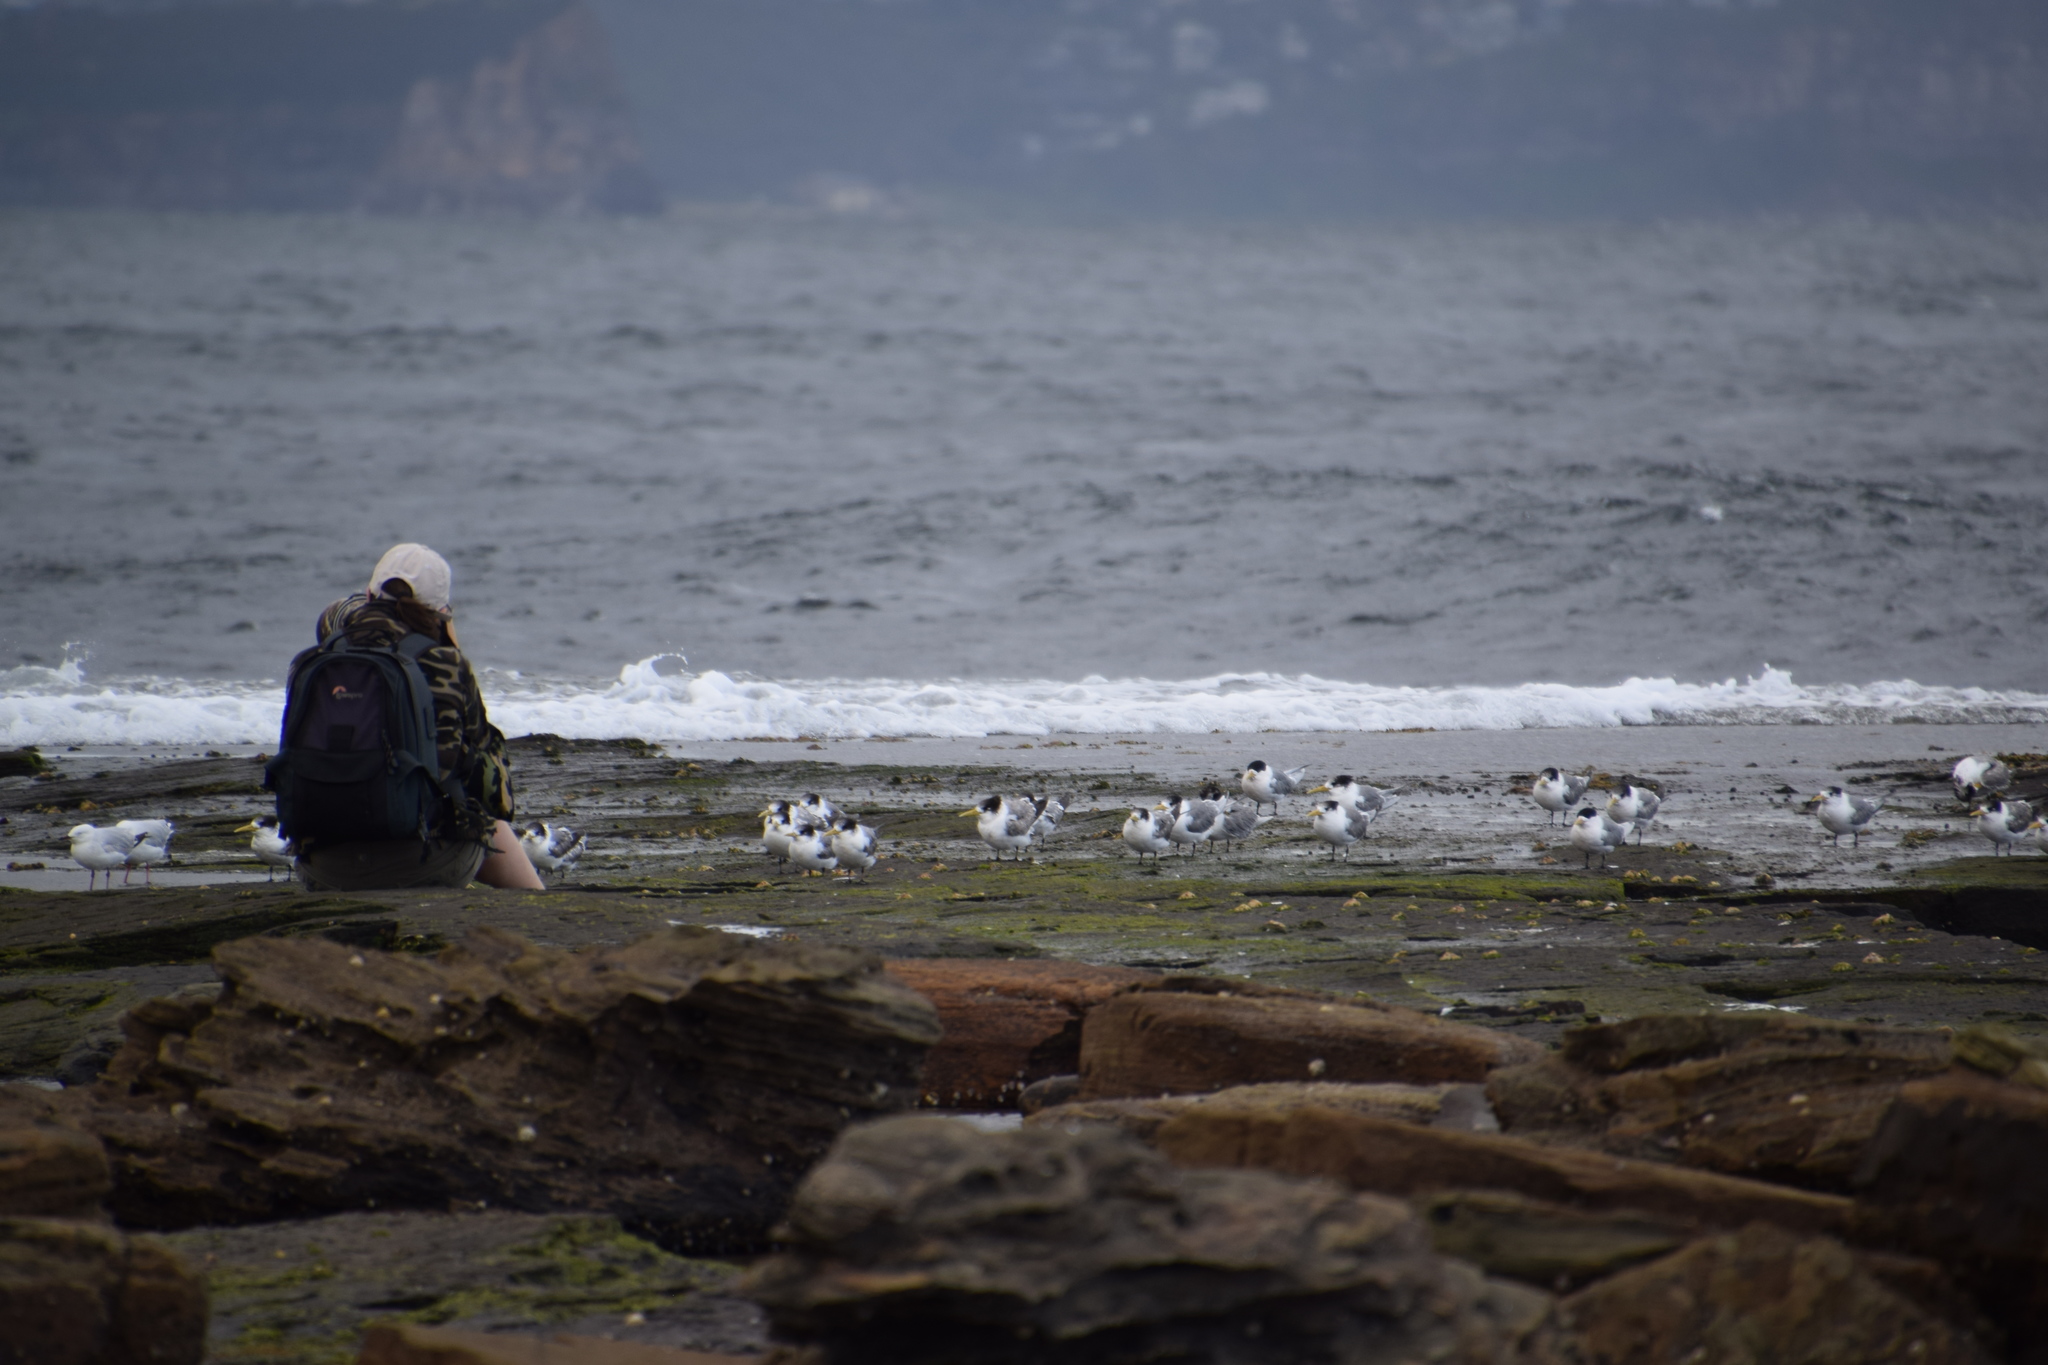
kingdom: Animalia
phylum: Chordata
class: Aves
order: Charadriiformes
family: Laridae
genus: Thalasseus
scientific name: Thalasseus bergii
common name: Greater crested tern
